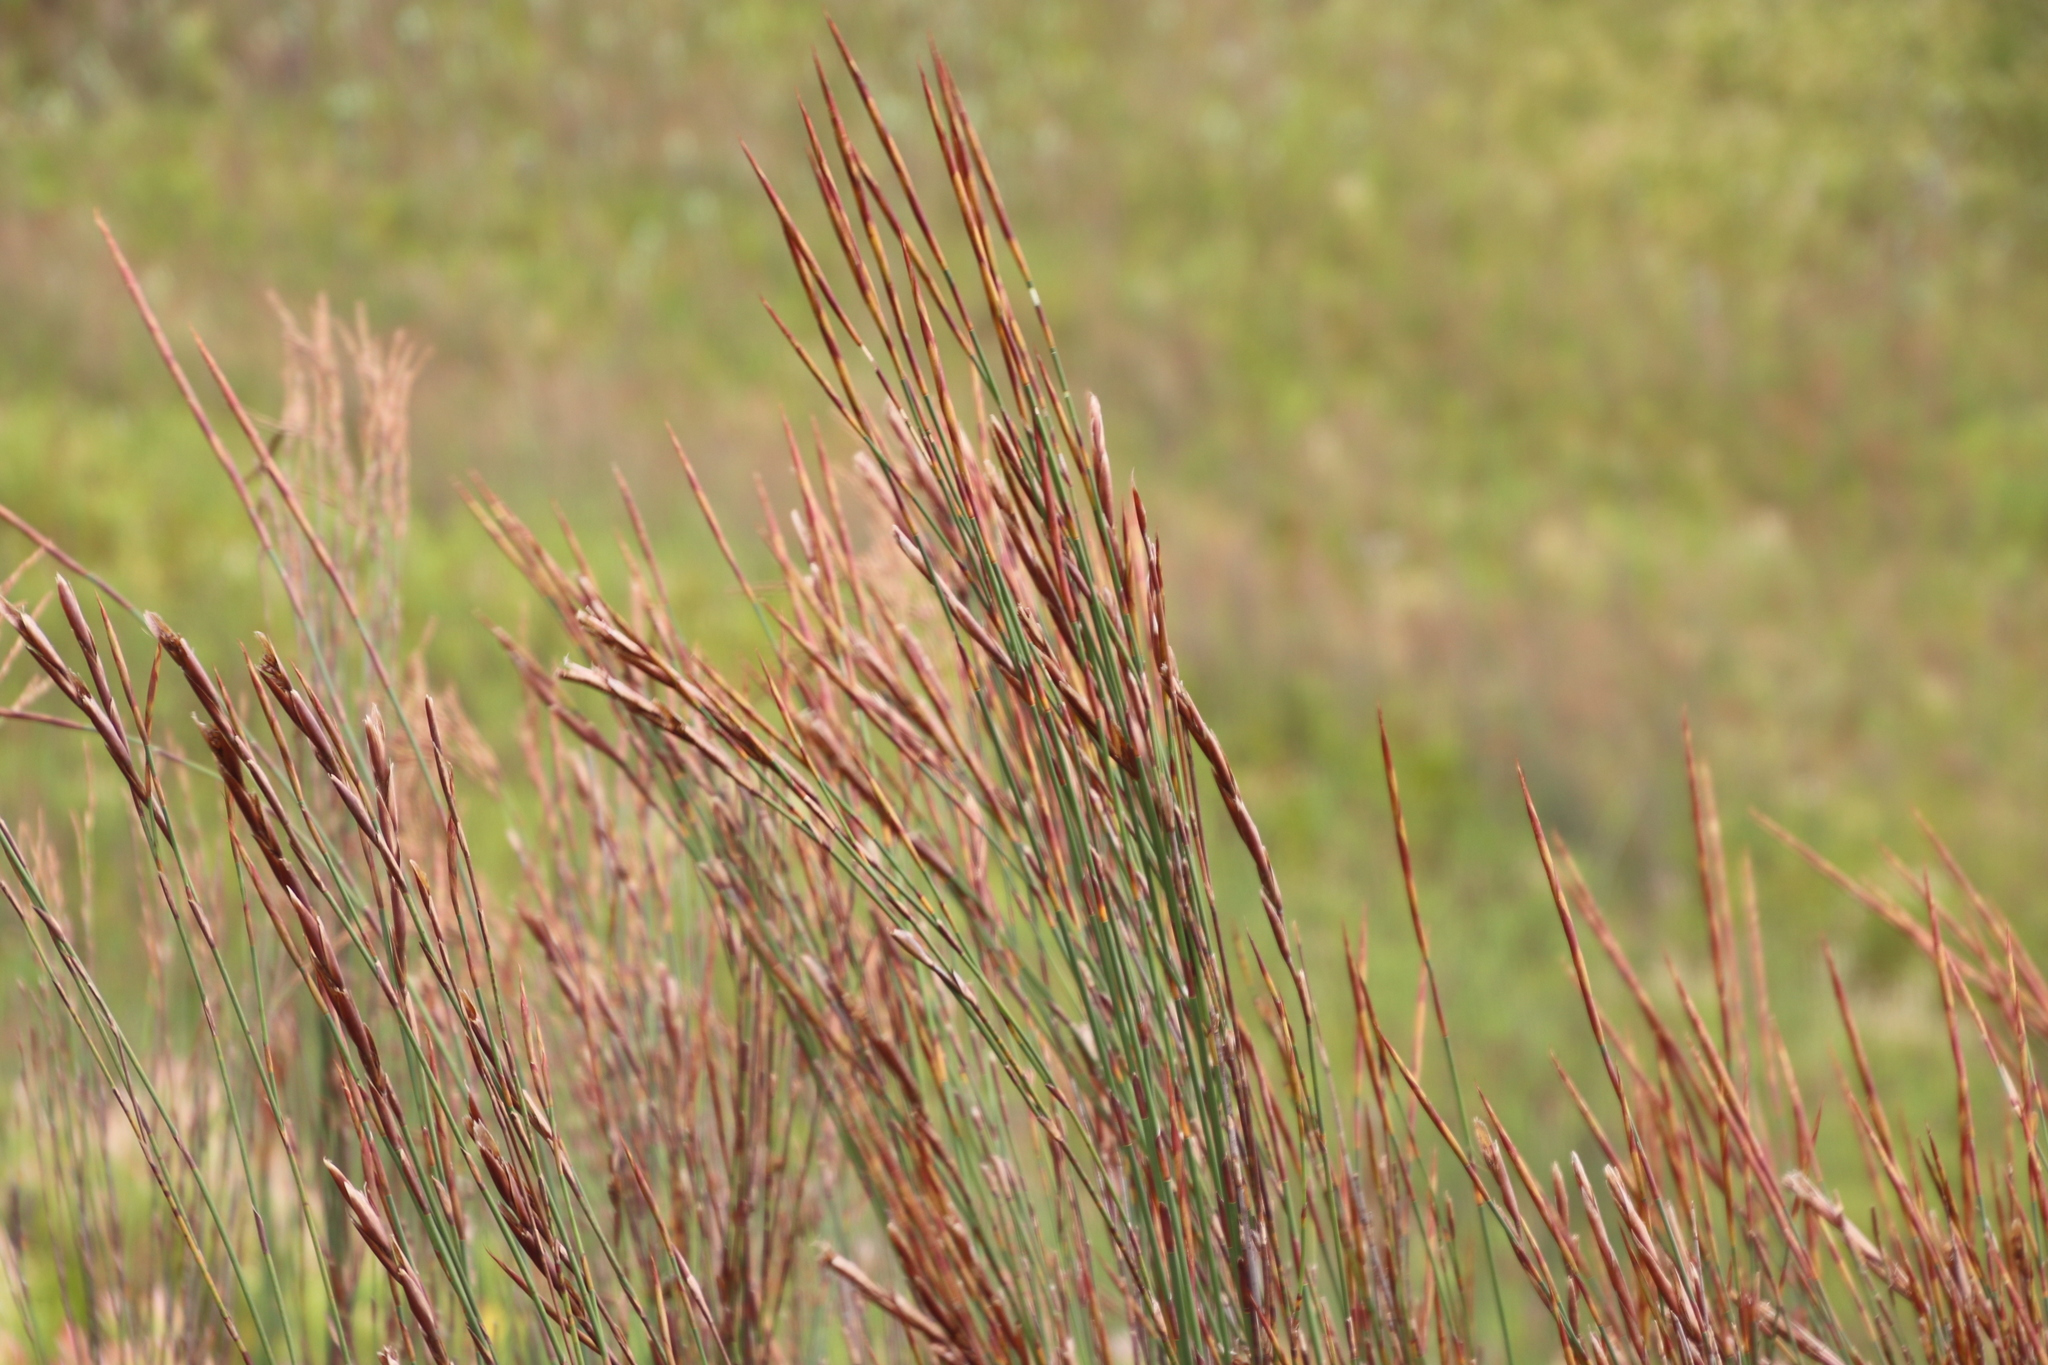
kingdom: Plantae
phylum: Tracheophyta
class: Liliopsida
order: Poales
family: Restionaceae
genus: Restio
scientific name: Restio dispar
